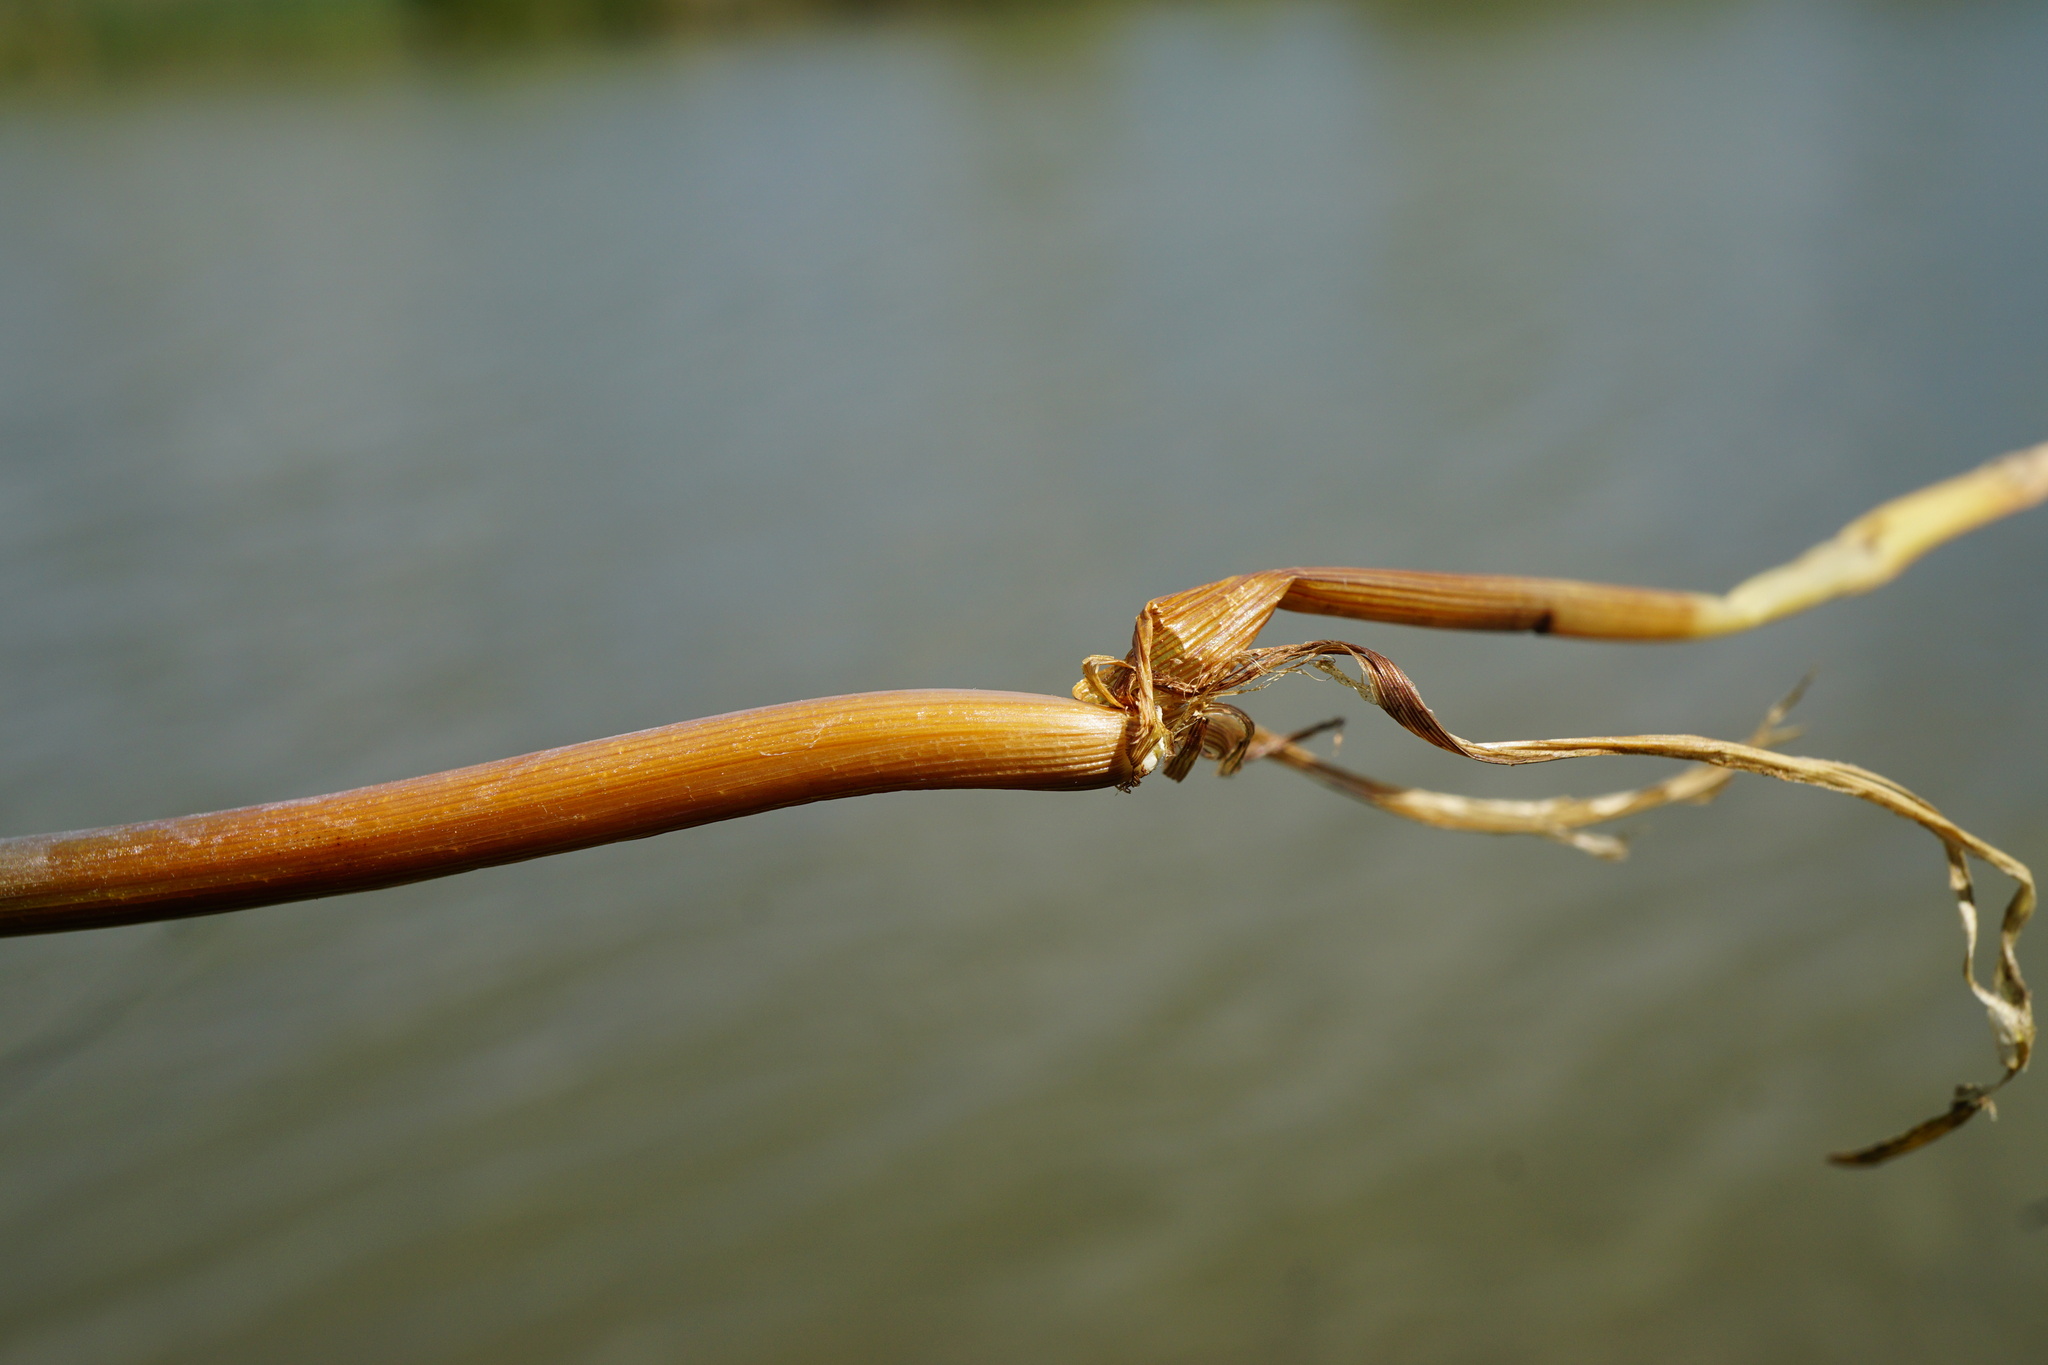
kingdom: Plantae
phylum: Tracheophyta
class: Liliopsida
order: Poales
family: Cyperaceae
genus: Carex
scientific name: Carex paniculata
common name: Greater tussock-sedge
